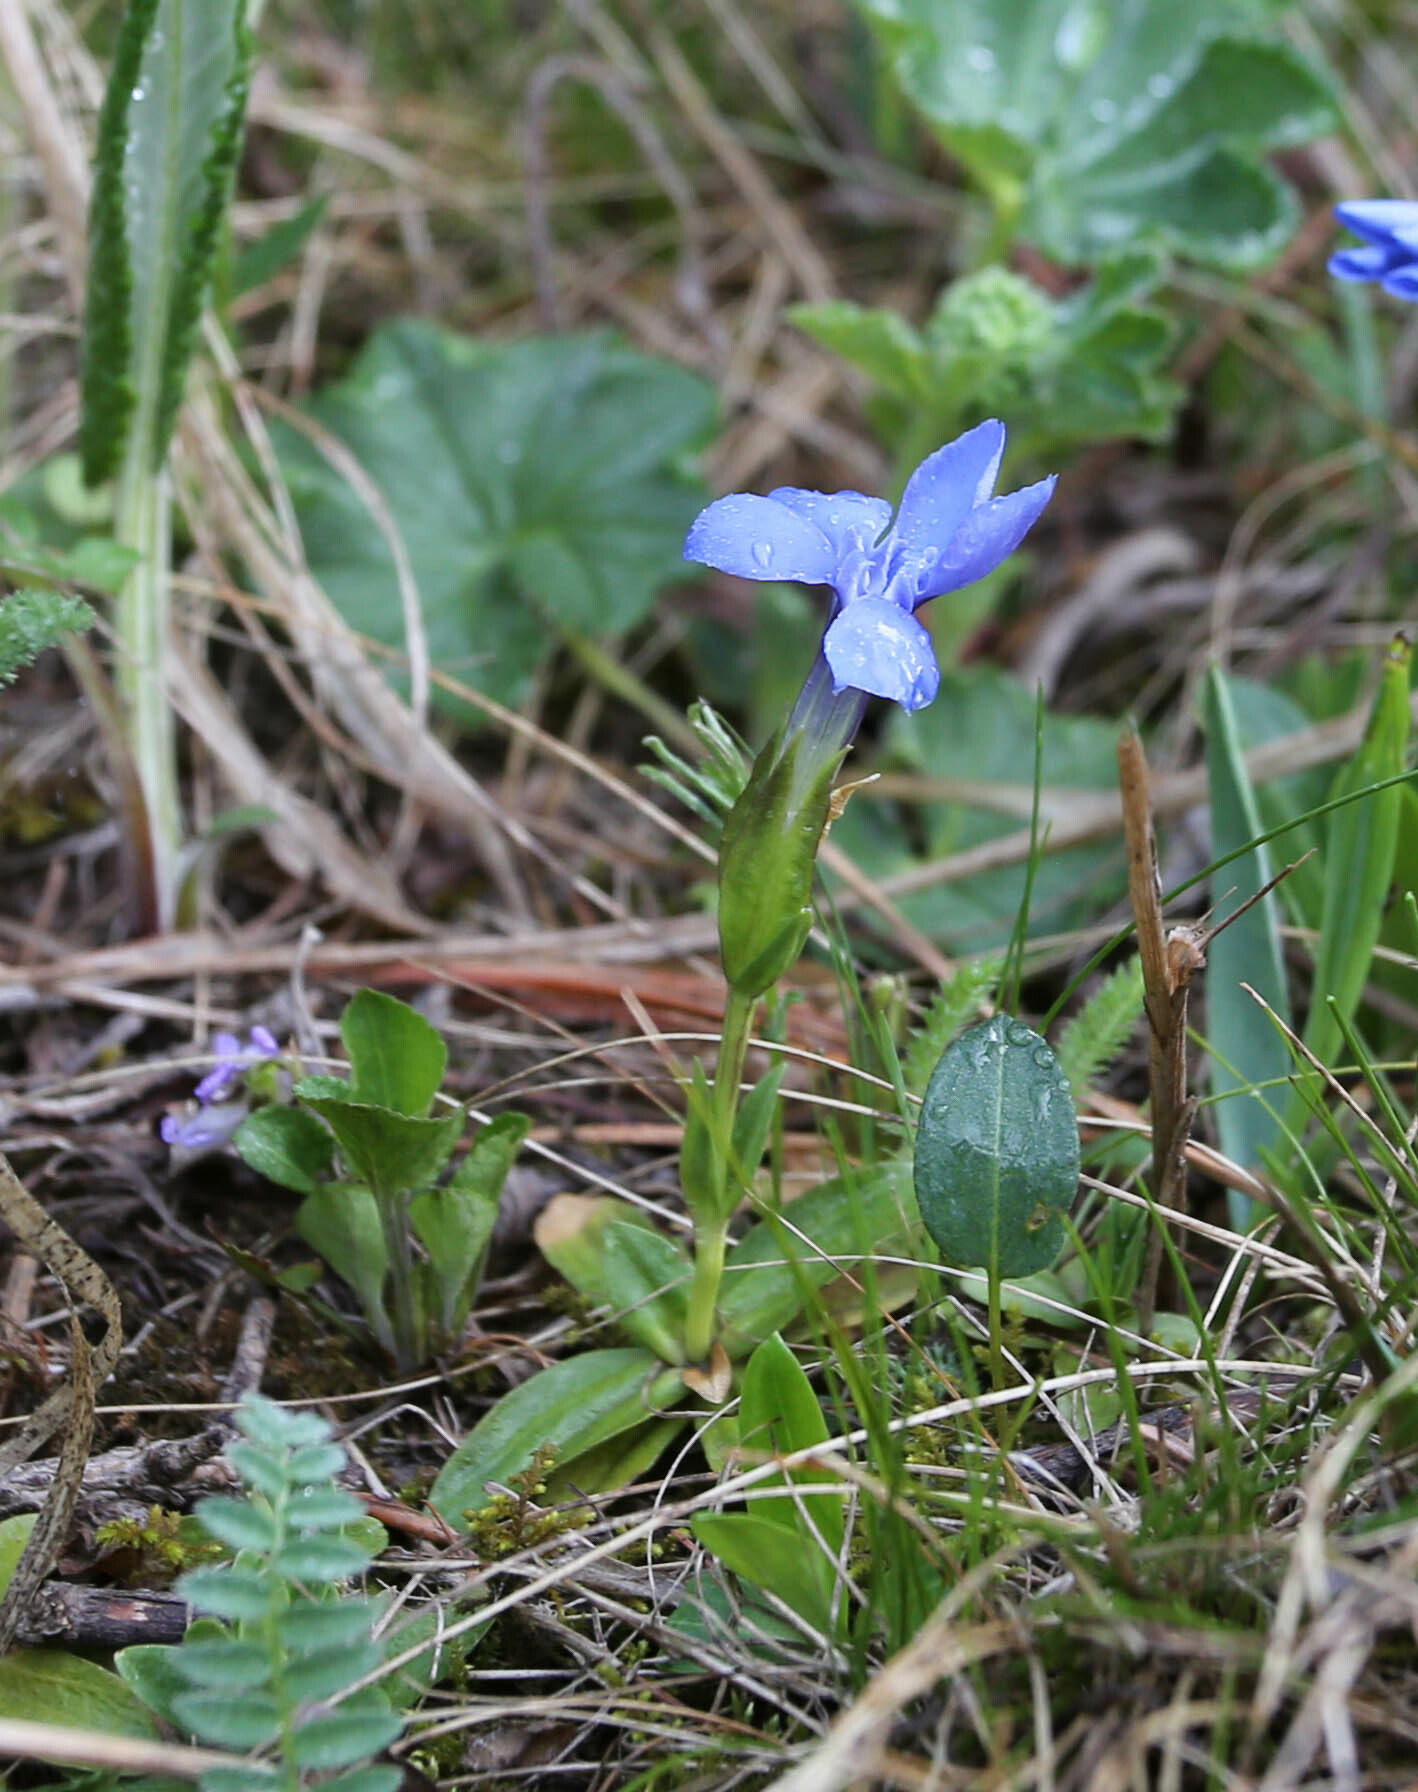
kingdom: Plantae
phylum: Tracheophyta
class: Magnoliopsida
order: Gentianales
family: Gentianaceae
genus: Gentiana
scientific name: Gentiana uniflora
